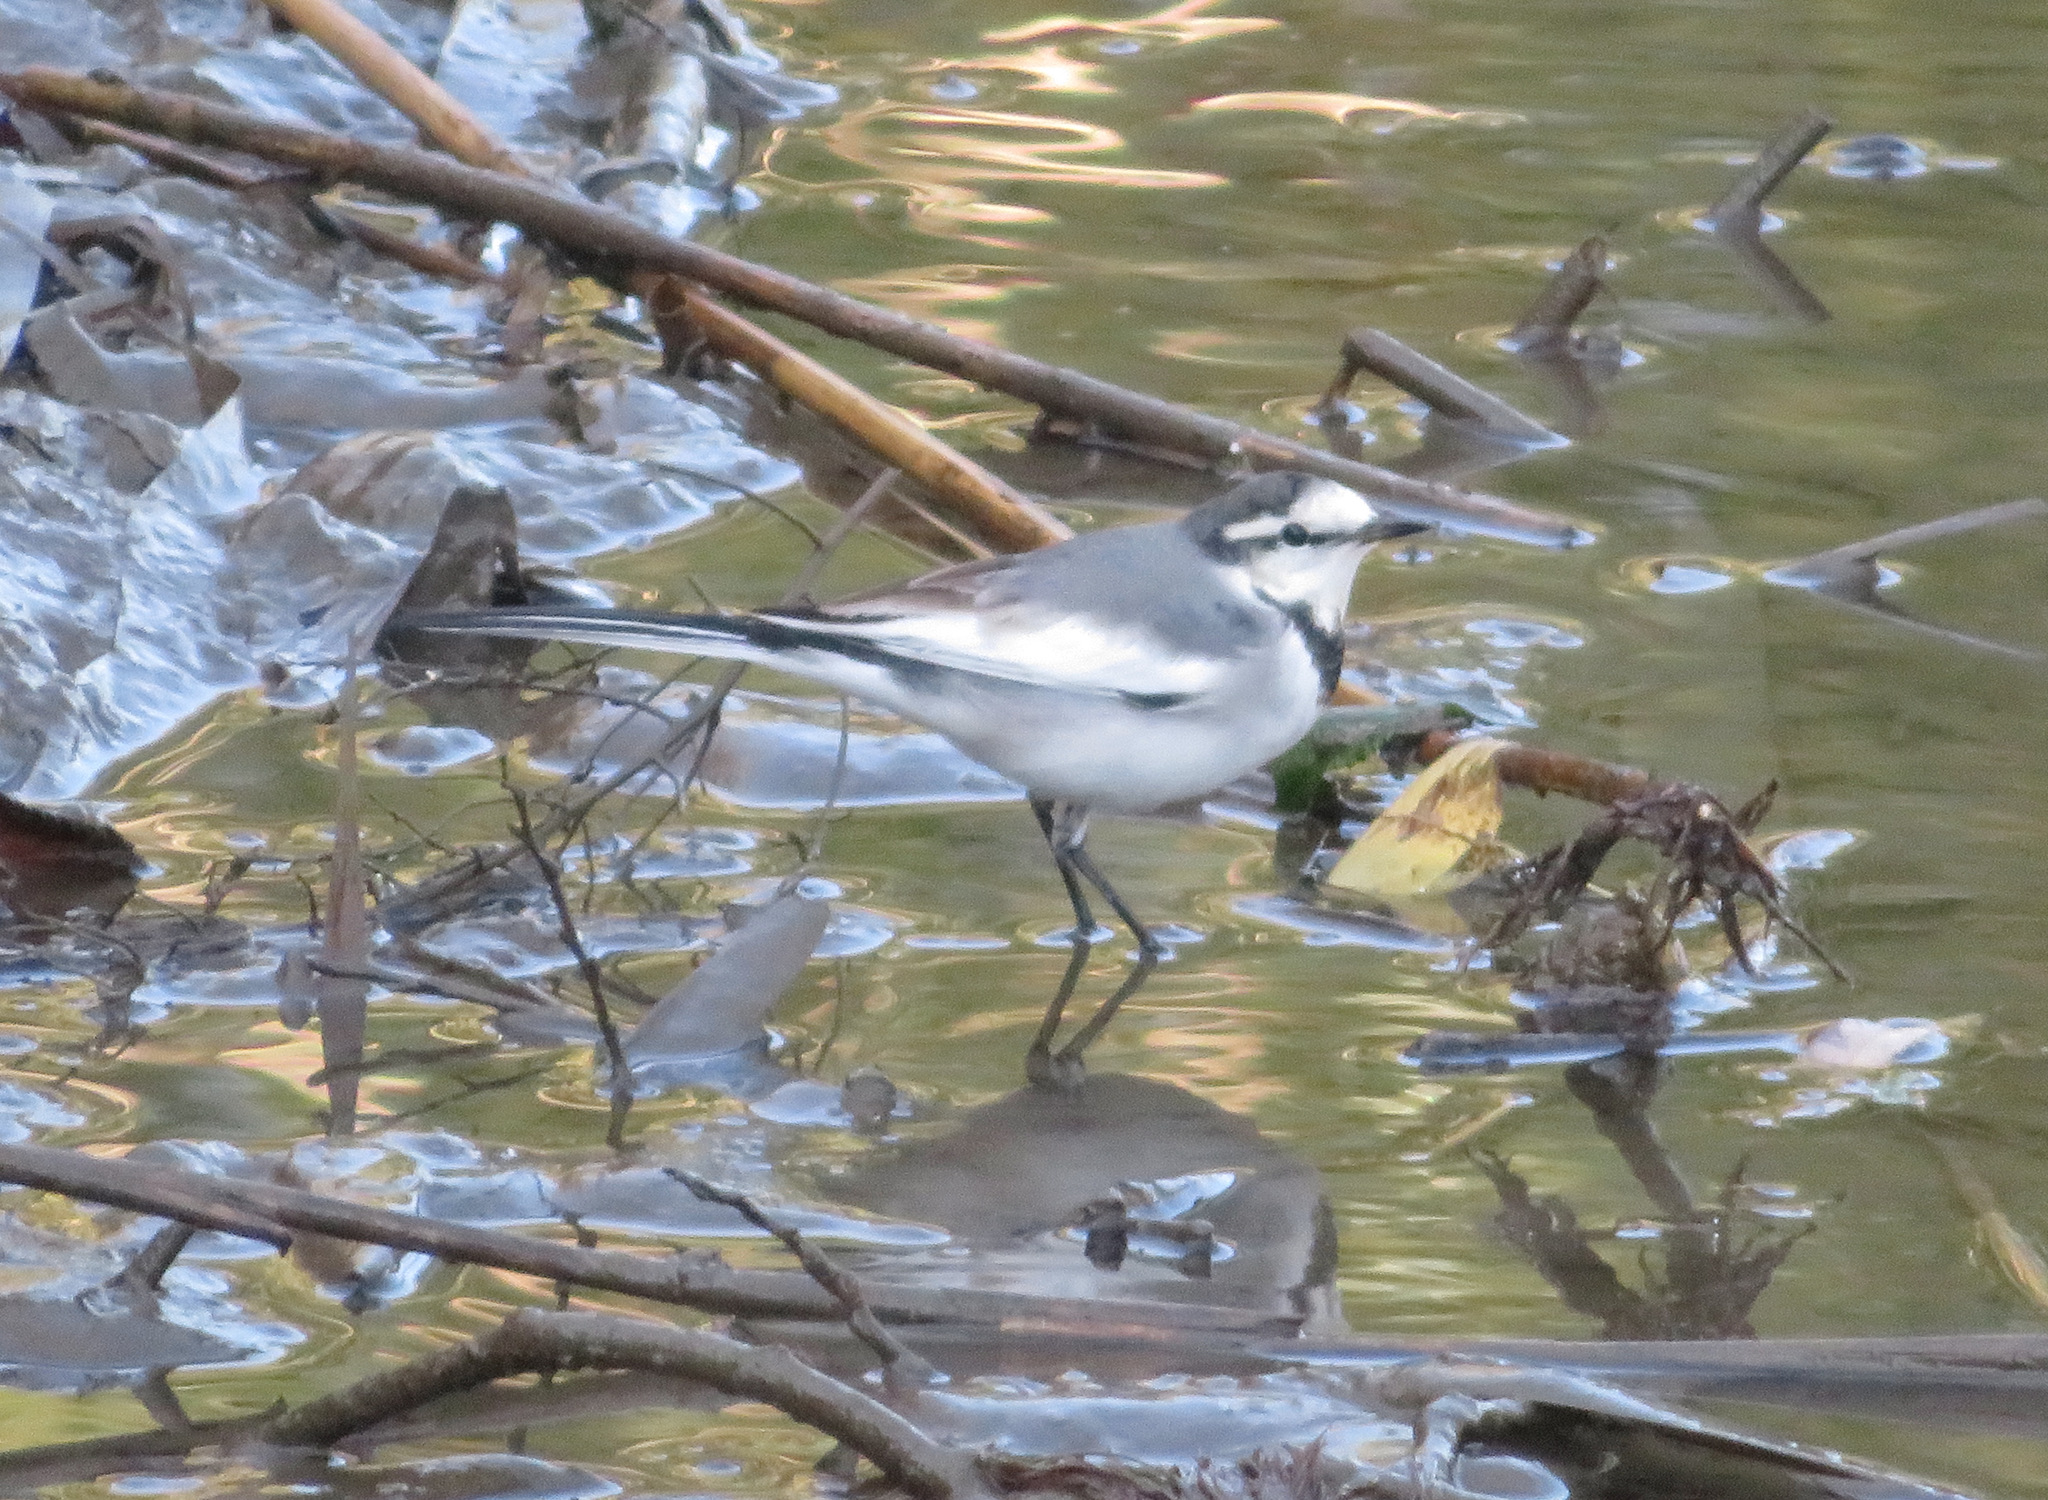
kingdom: Animalia
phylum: Chordata
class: Aves
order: Passeriformes
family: Motacillidae
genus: Motacilla
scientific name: Motacilla alba
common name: White wagtail
